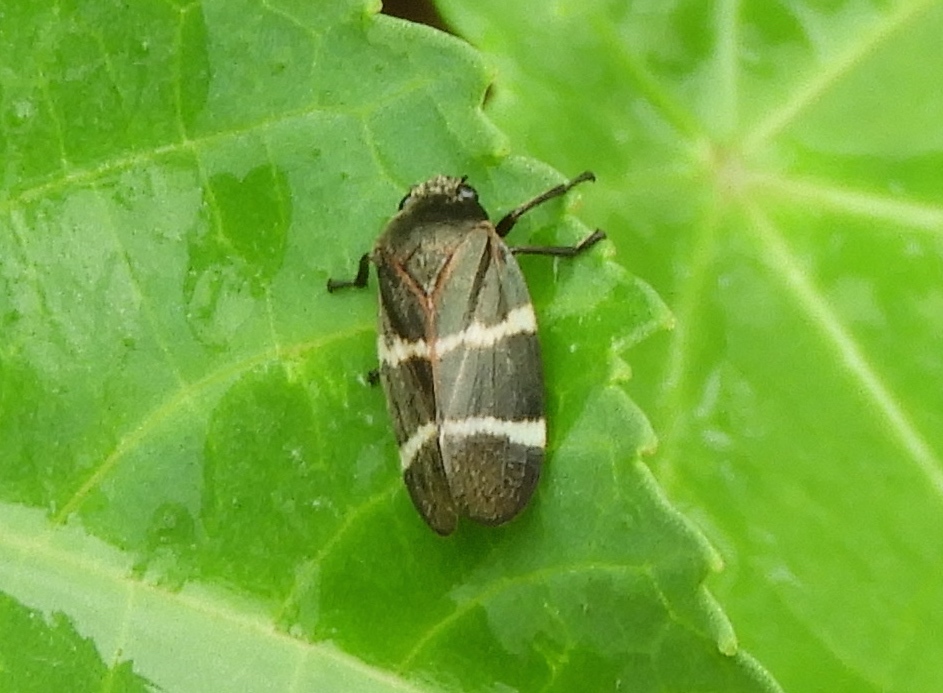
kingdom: Animalia
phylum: Arthropoda
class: Insecta
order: Hemiptera
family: Cercopidae
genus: Aeneolamia
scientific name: Aeneolamia albofasciata
